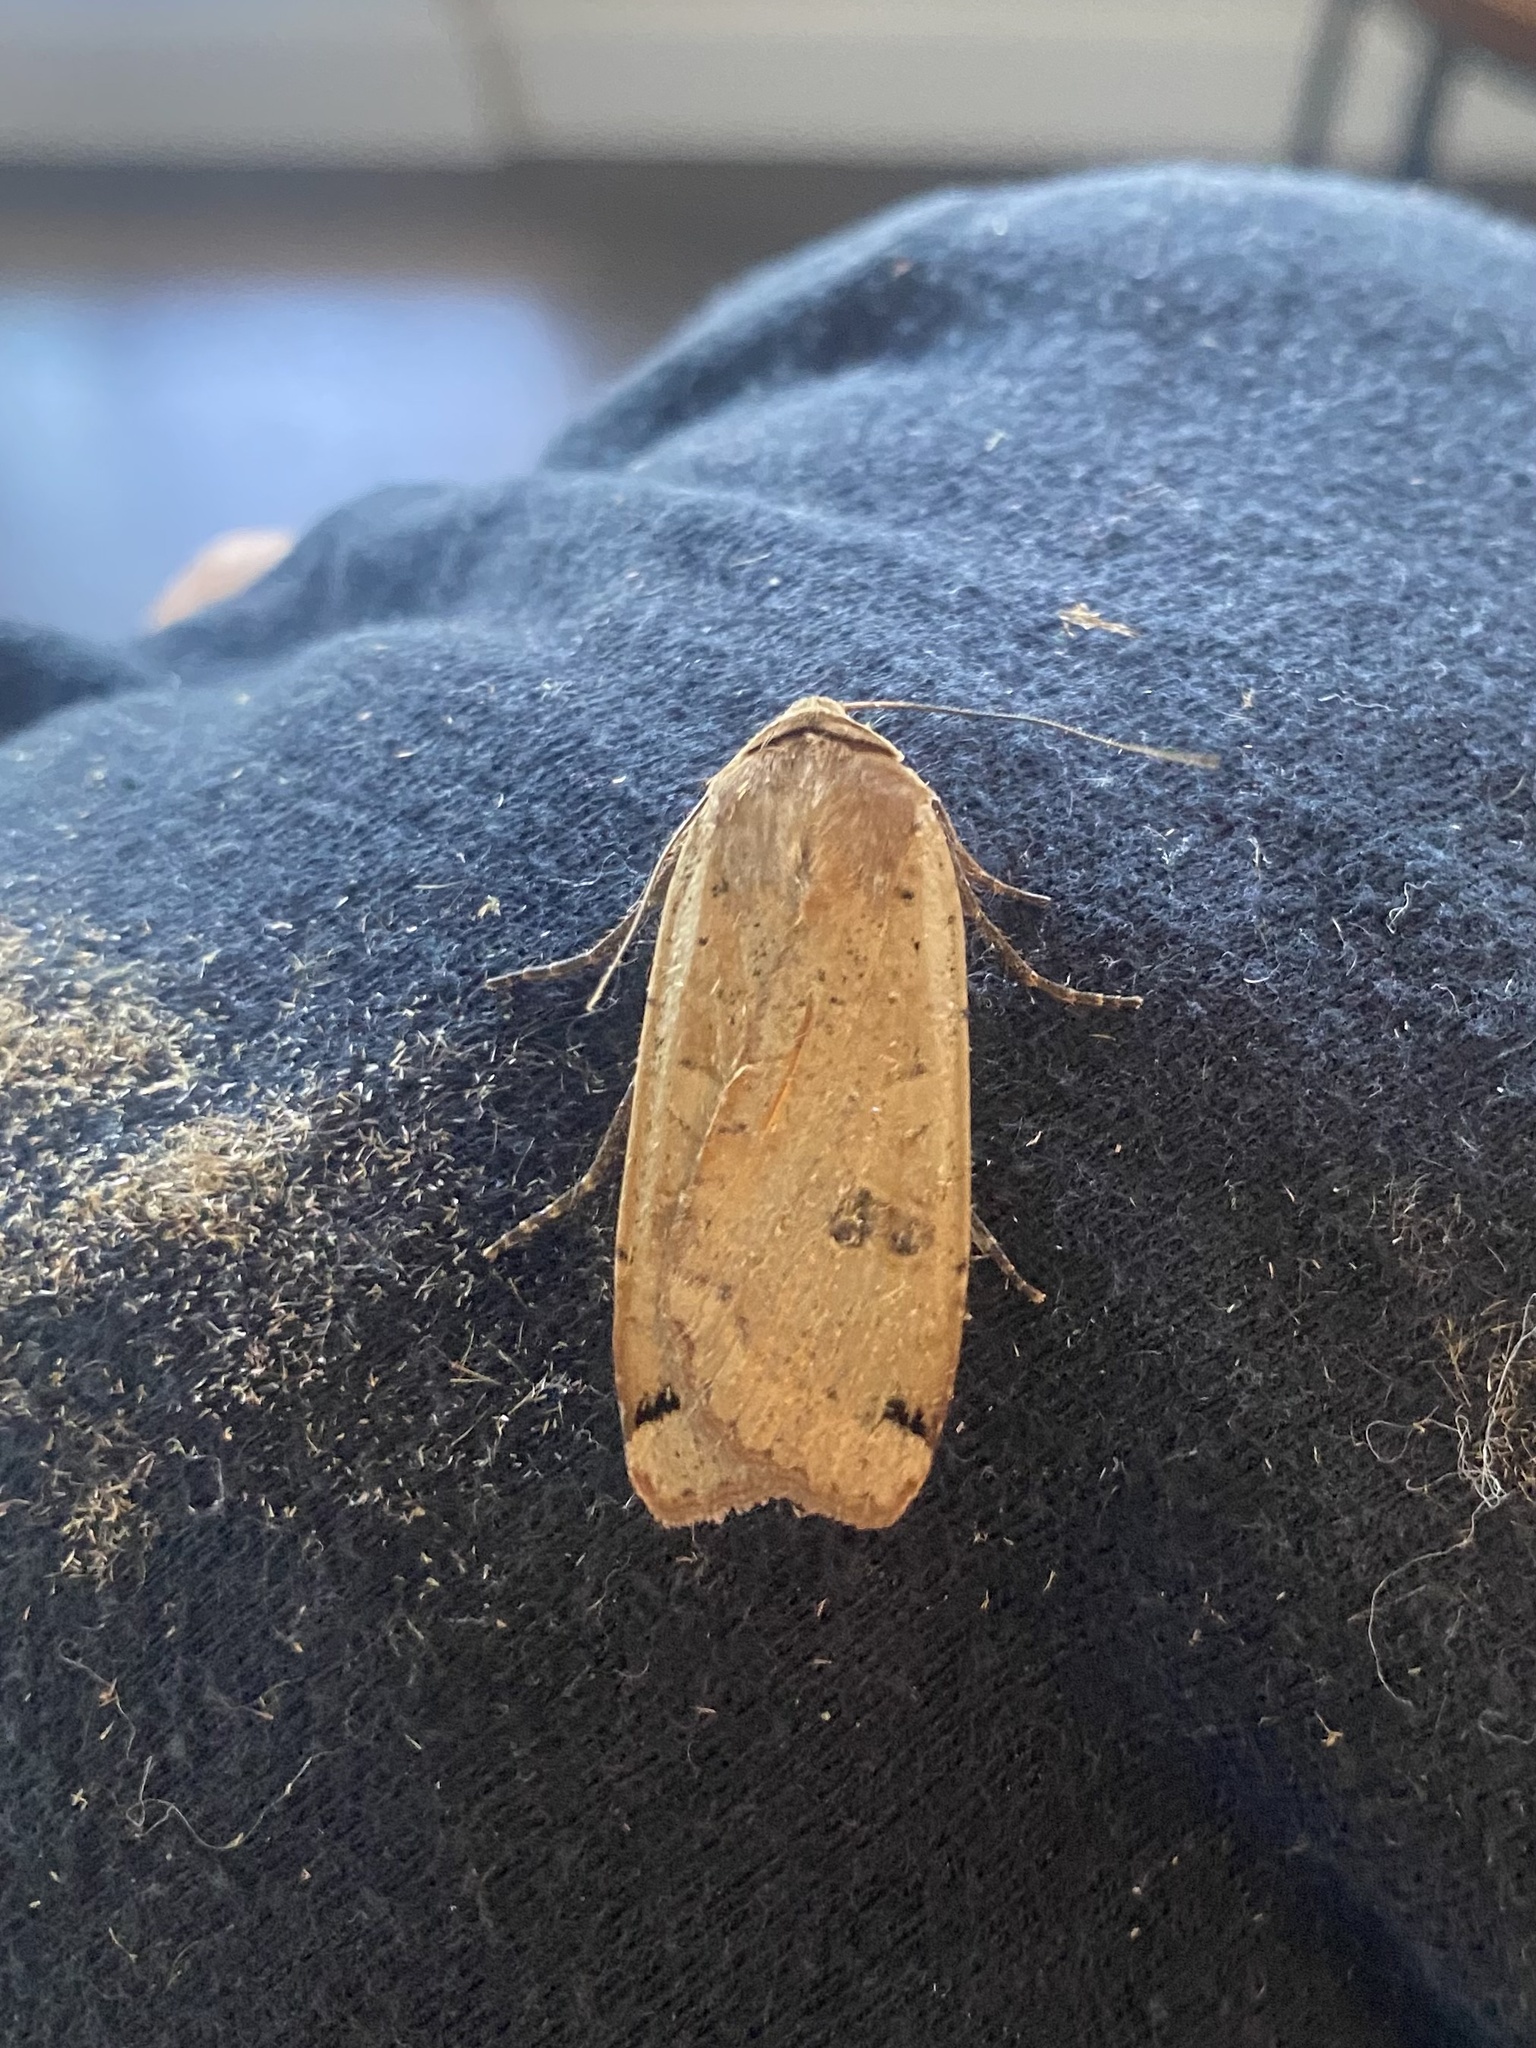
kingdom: Animalia
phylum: Arthropoda
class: Insecta
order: Lepidoptera
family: Noctuidae
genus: Noctua
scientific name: Noctua pronuba
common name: Large yellow underwing
